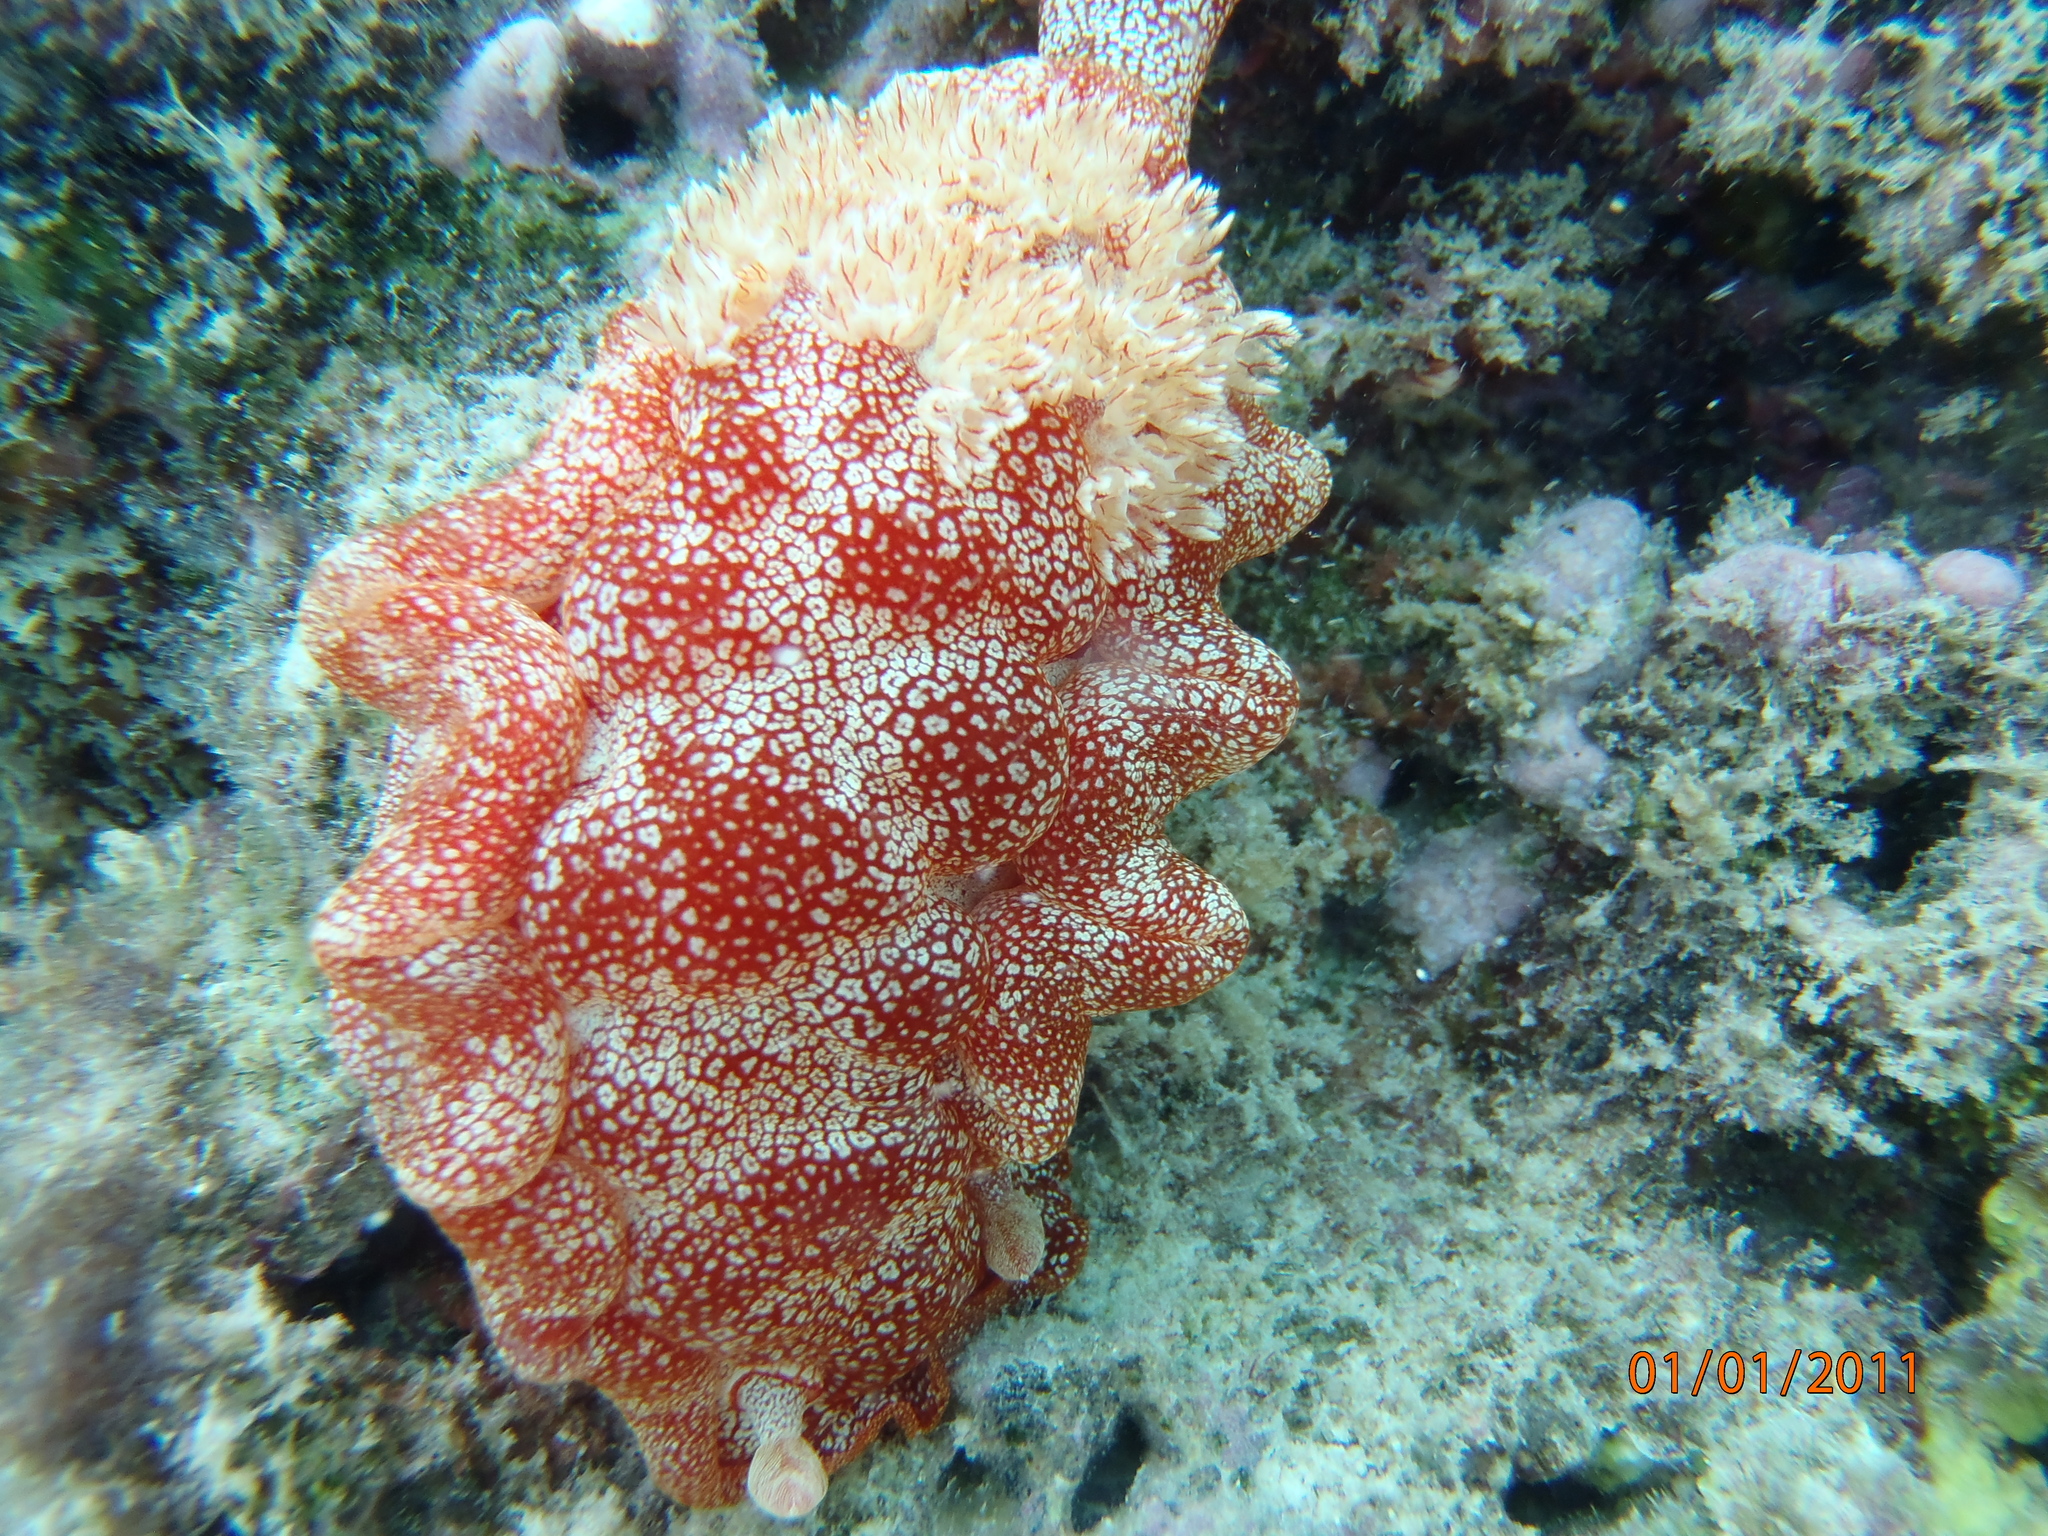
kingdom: Animalia
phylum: Mollusca
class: Gastropoda
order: Nudibranchia
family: Hexabranchidae
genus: Hexabranchus
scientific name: Hexabranchus lacer
